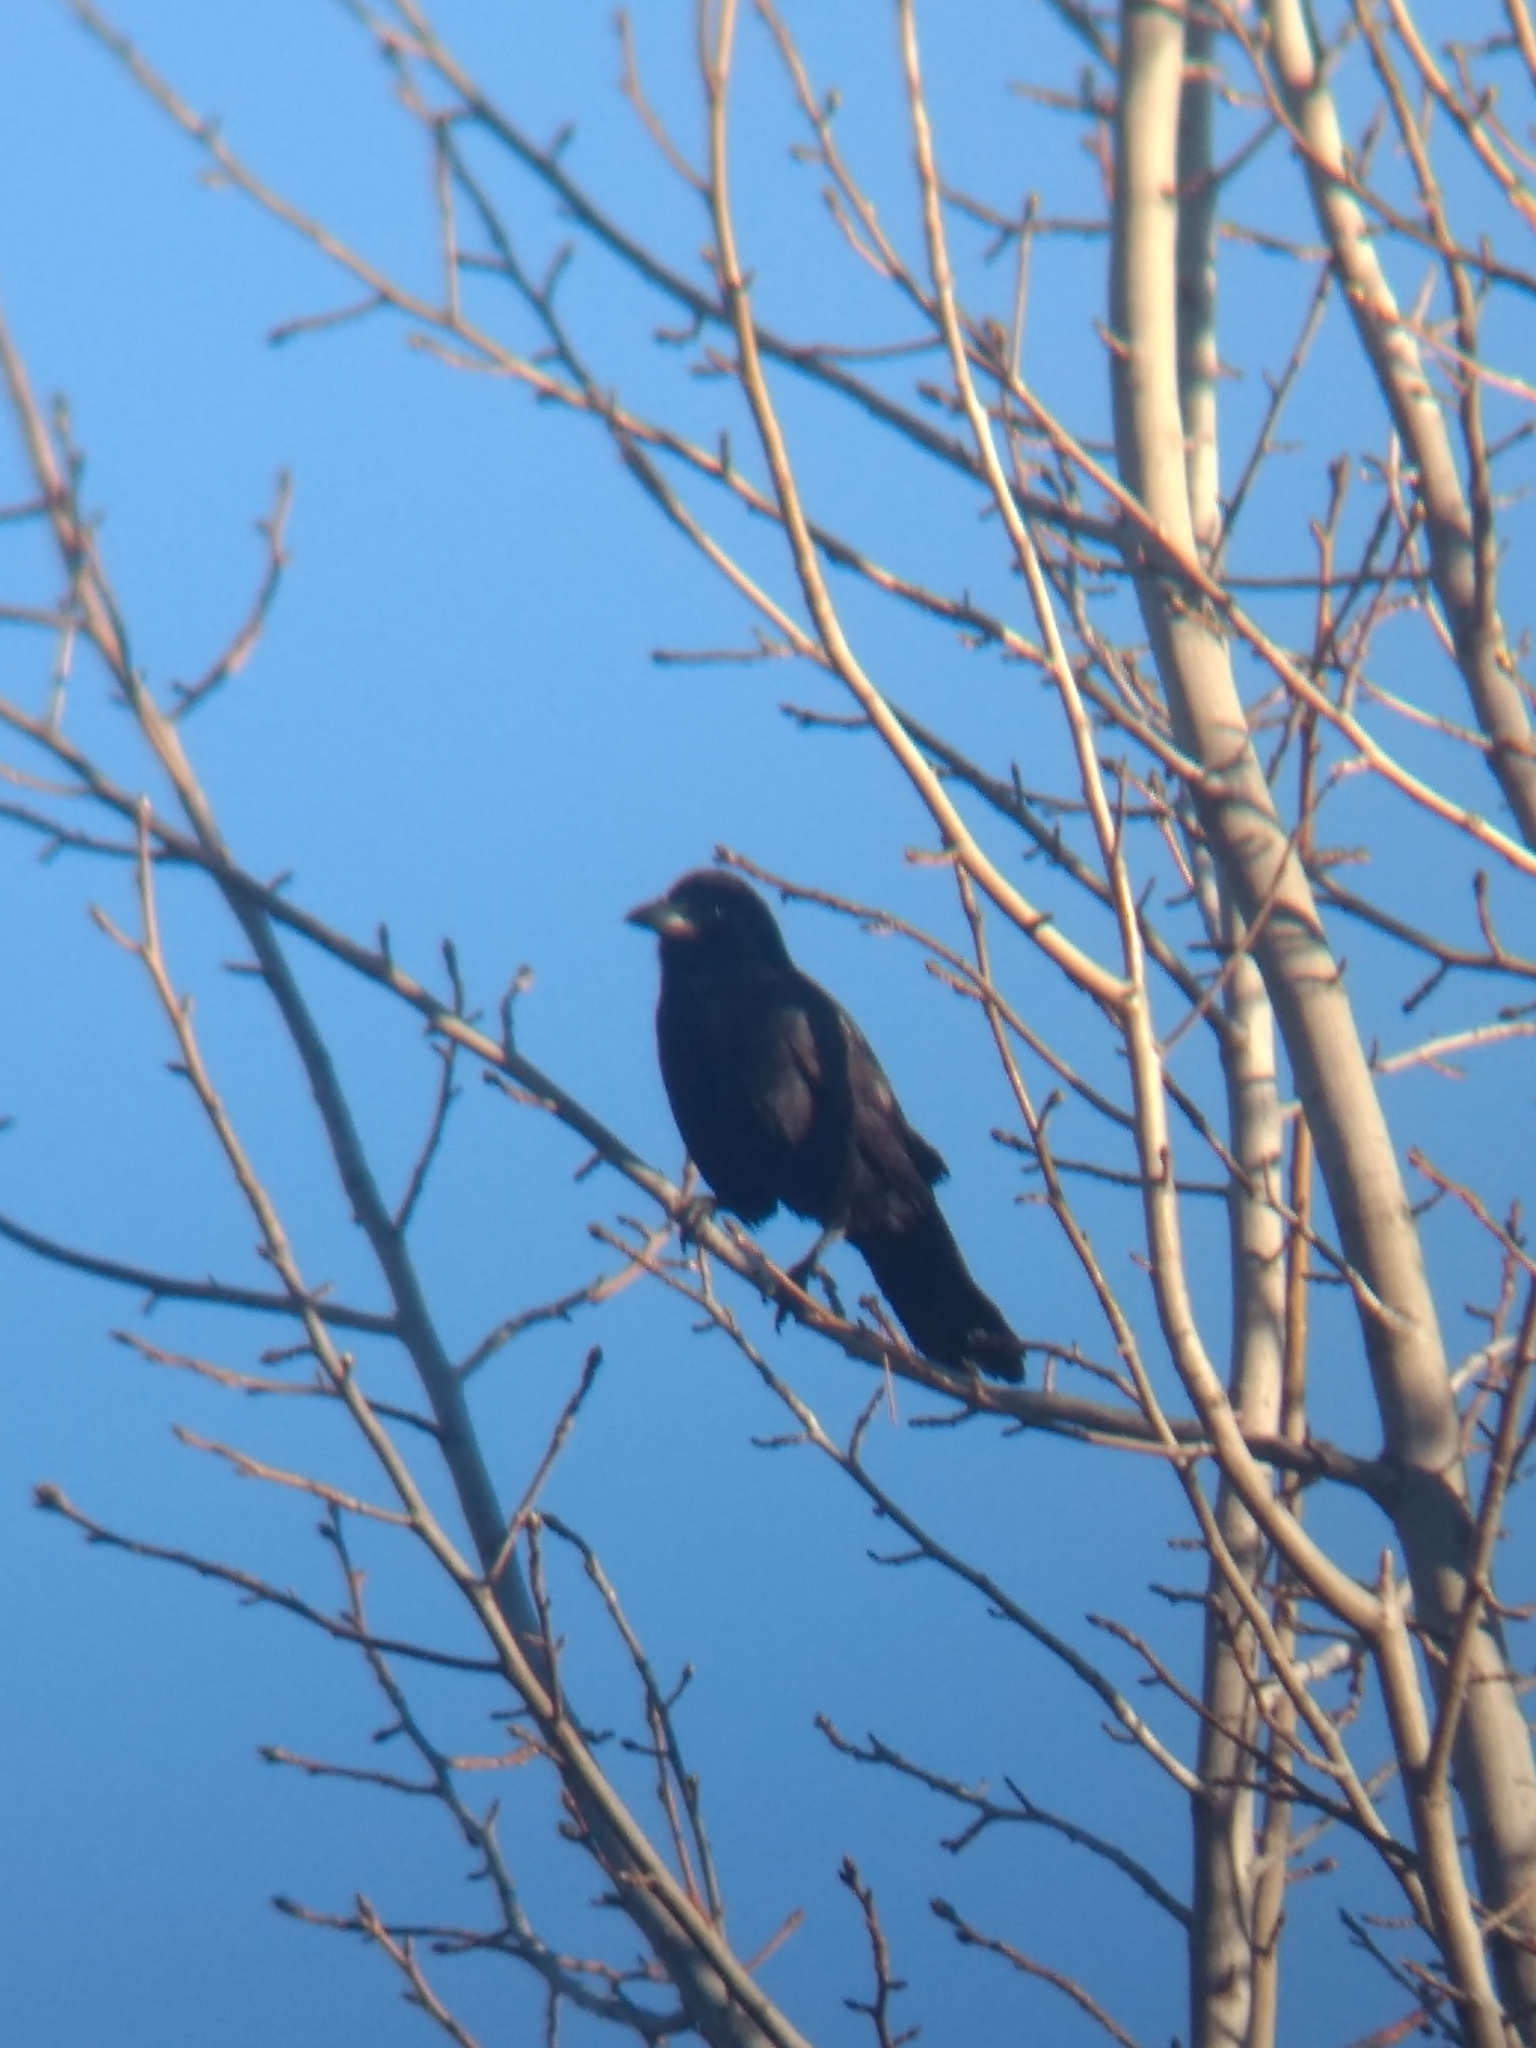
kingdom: Animalia
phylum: Chordata
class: Aves
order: Passeriformes
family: Corvidae
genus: Corvus
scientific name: Corvus brachyrhynchos
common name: American crow
